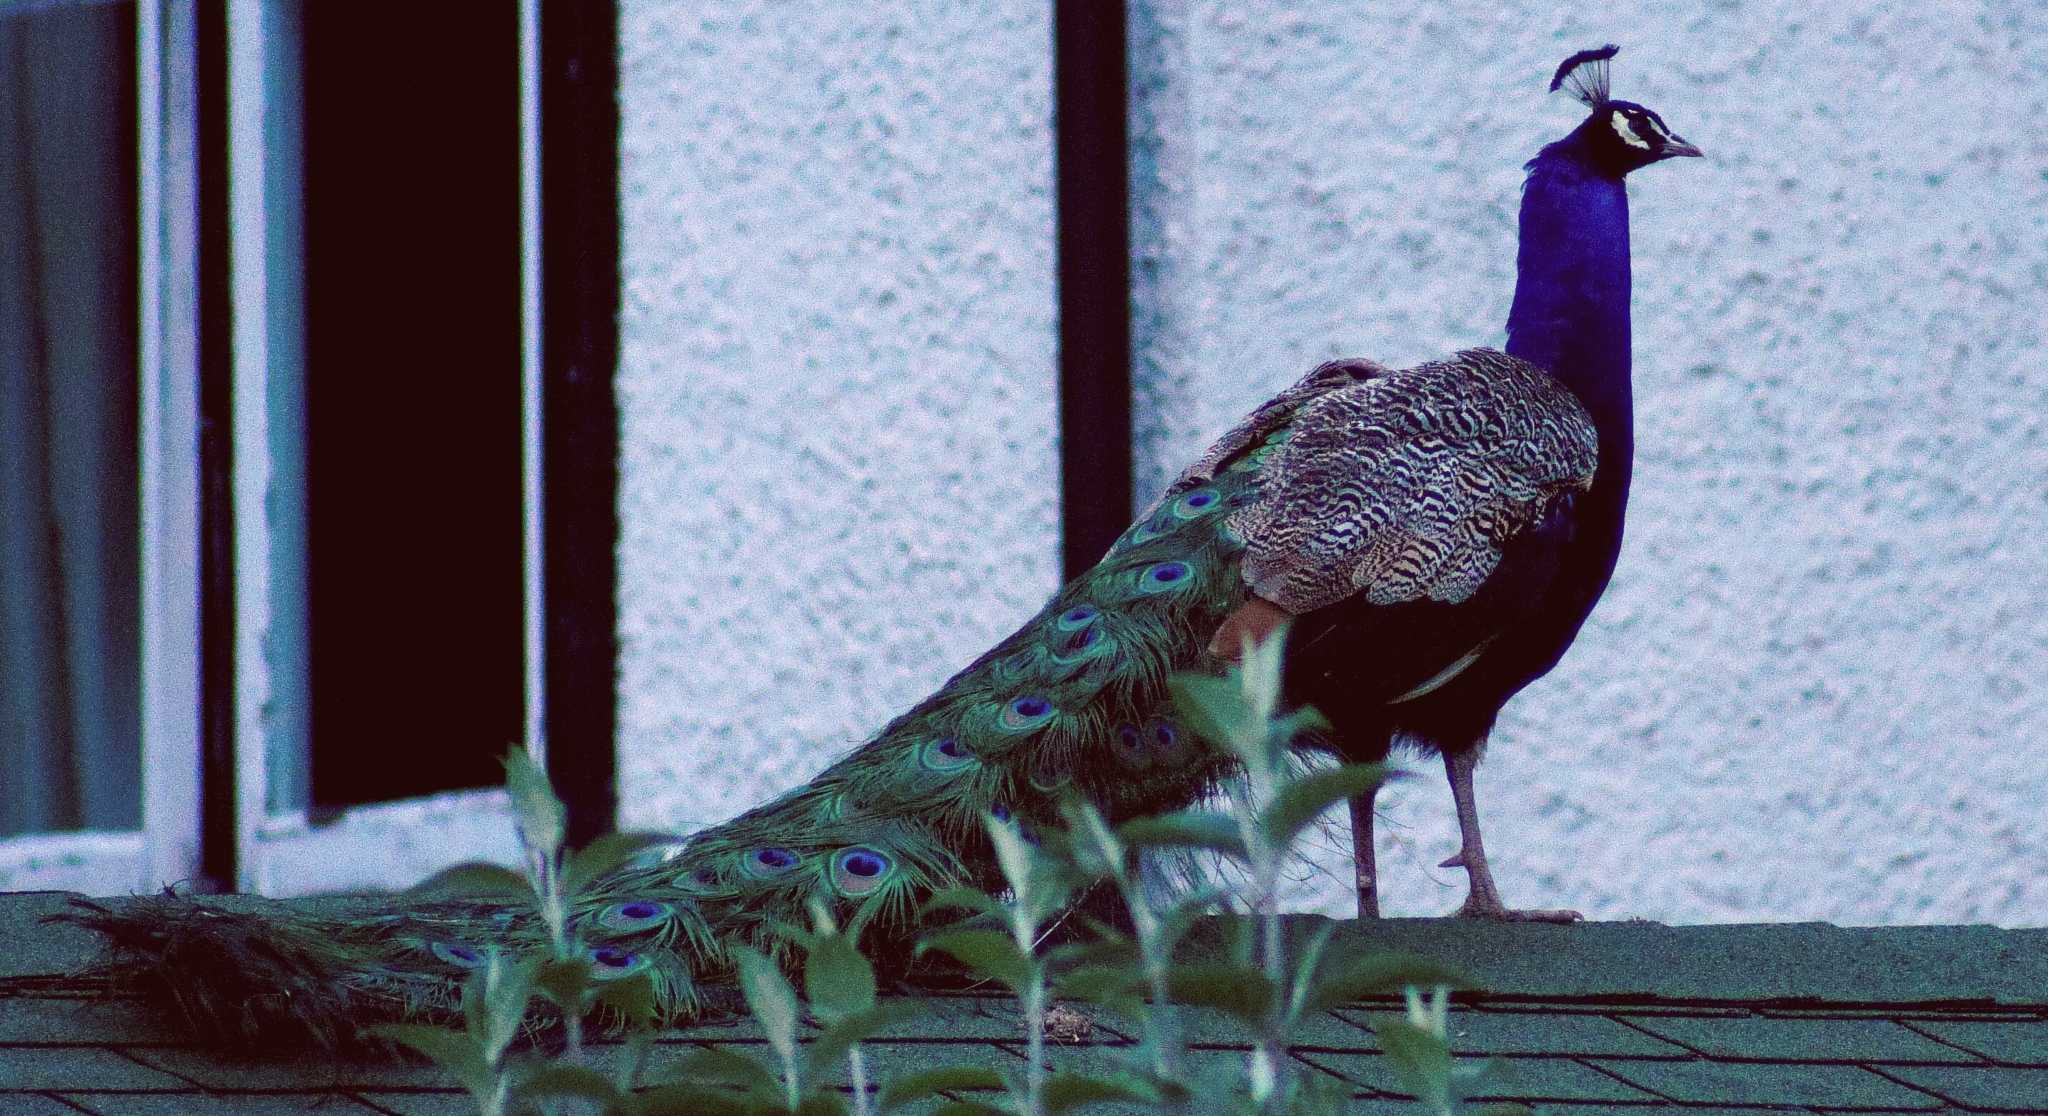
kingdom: Animalia
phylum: Chordata
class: Aves
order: Galliformes
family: Phasianidae
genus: Pavo
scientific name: Pavo cristatus
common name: Indian peafowl
